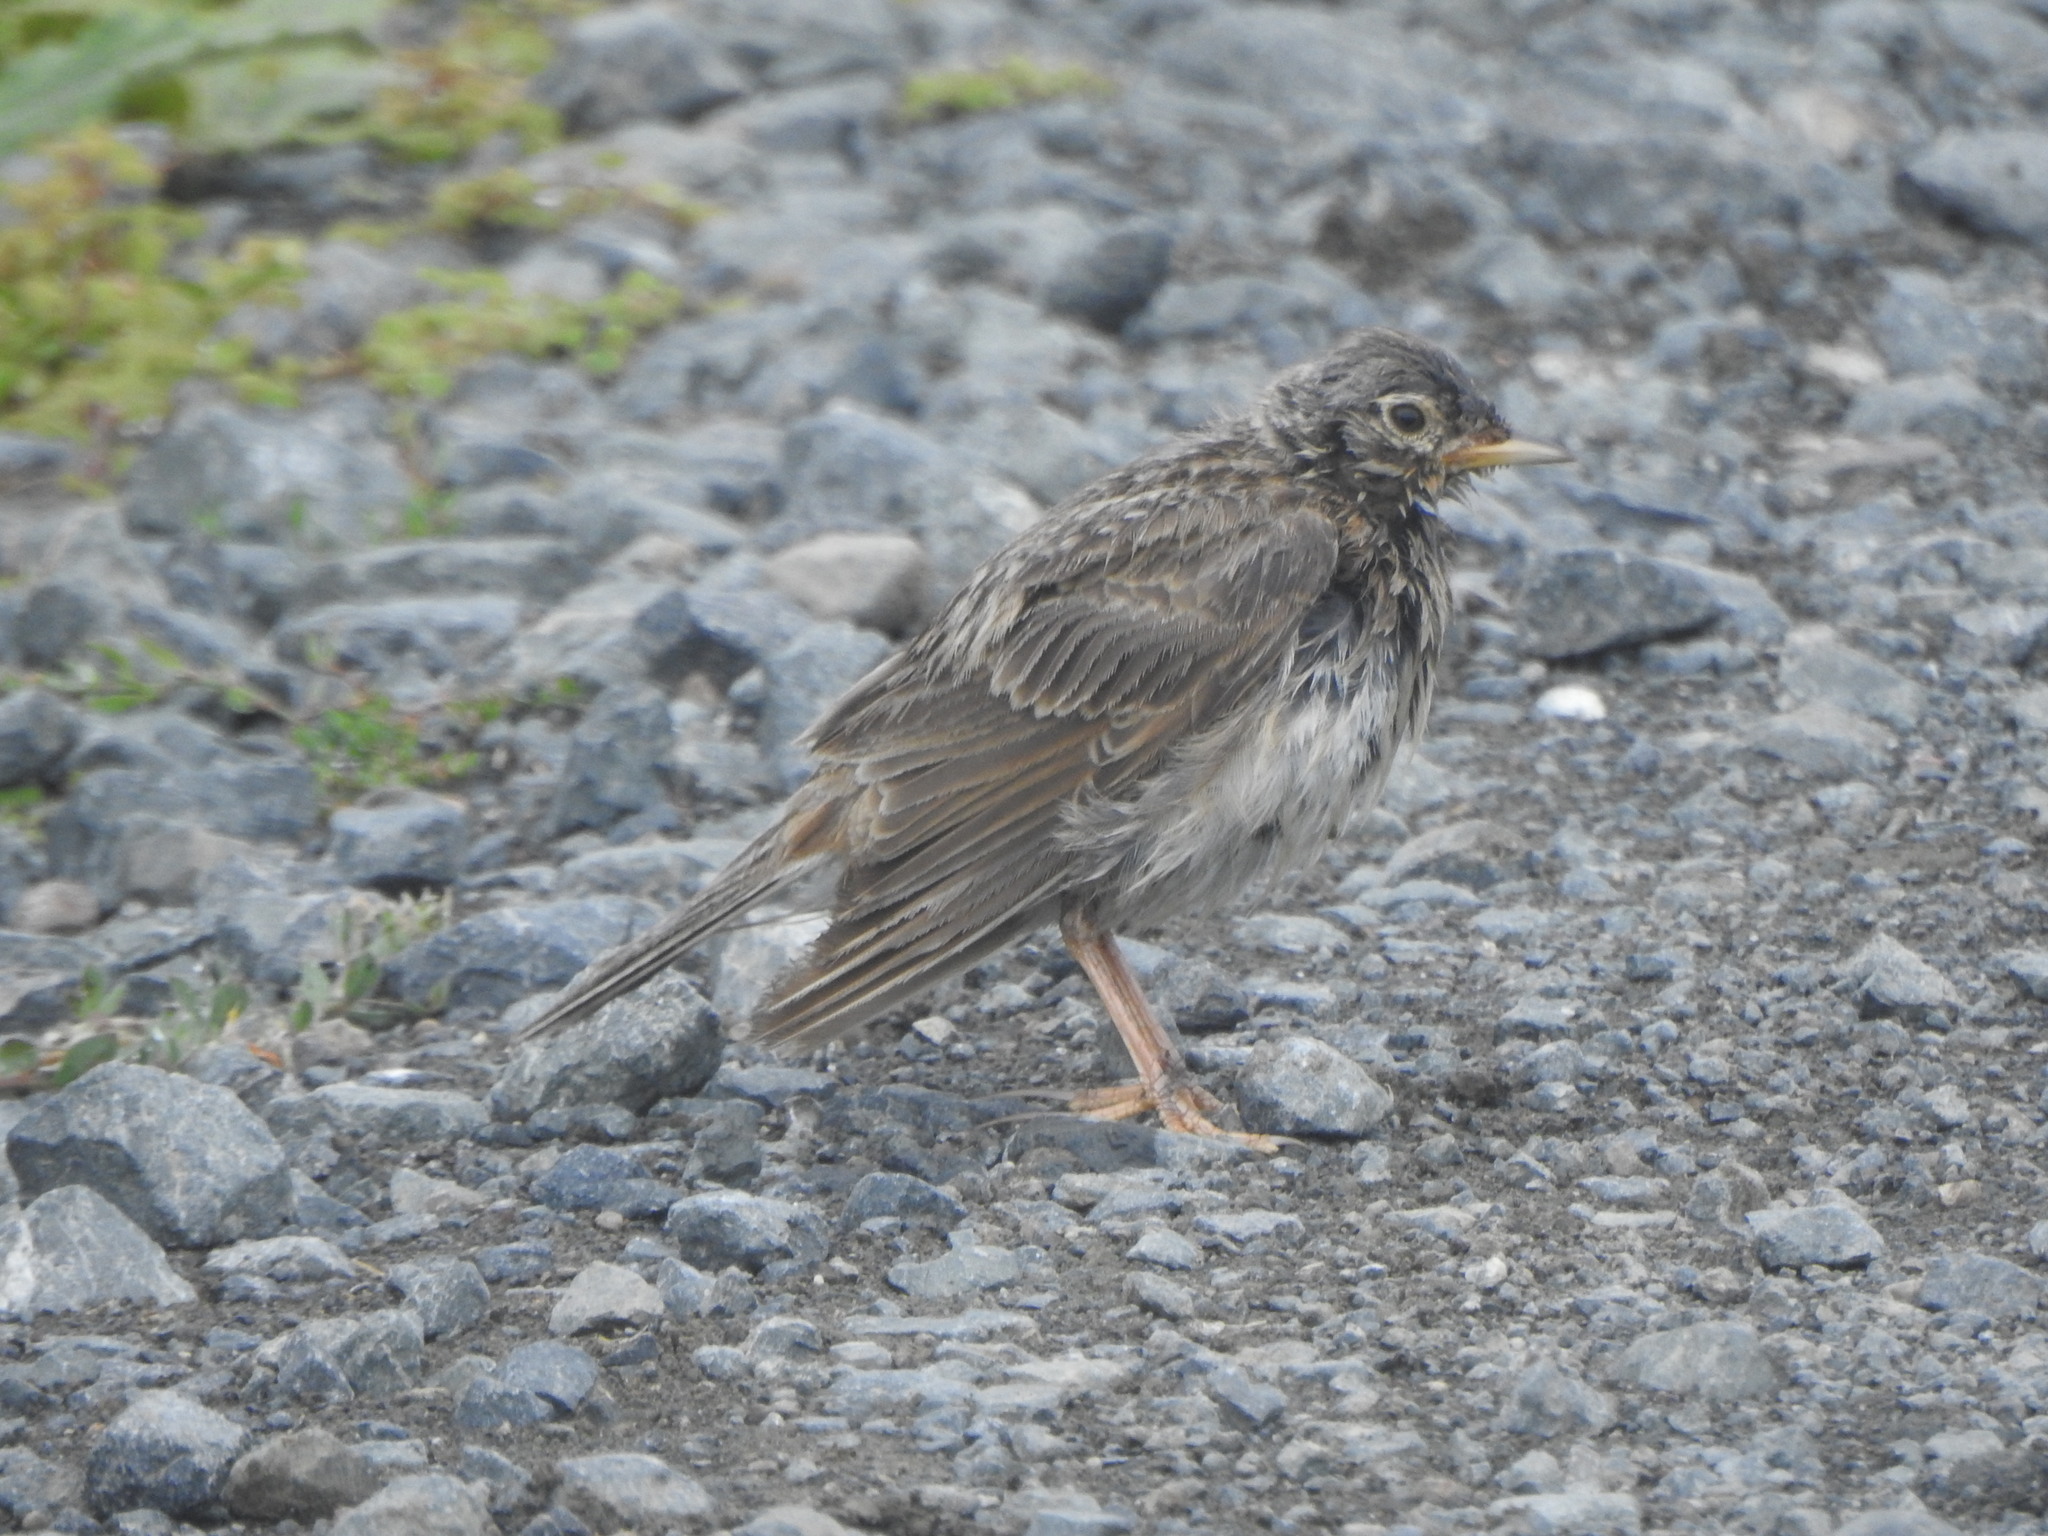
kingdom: Animalia
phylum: Chordata
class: Aves
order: Passeriformes
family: Alaudidae
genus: Alauda
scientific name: Alauda arvensis
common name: Eurasian skylark
